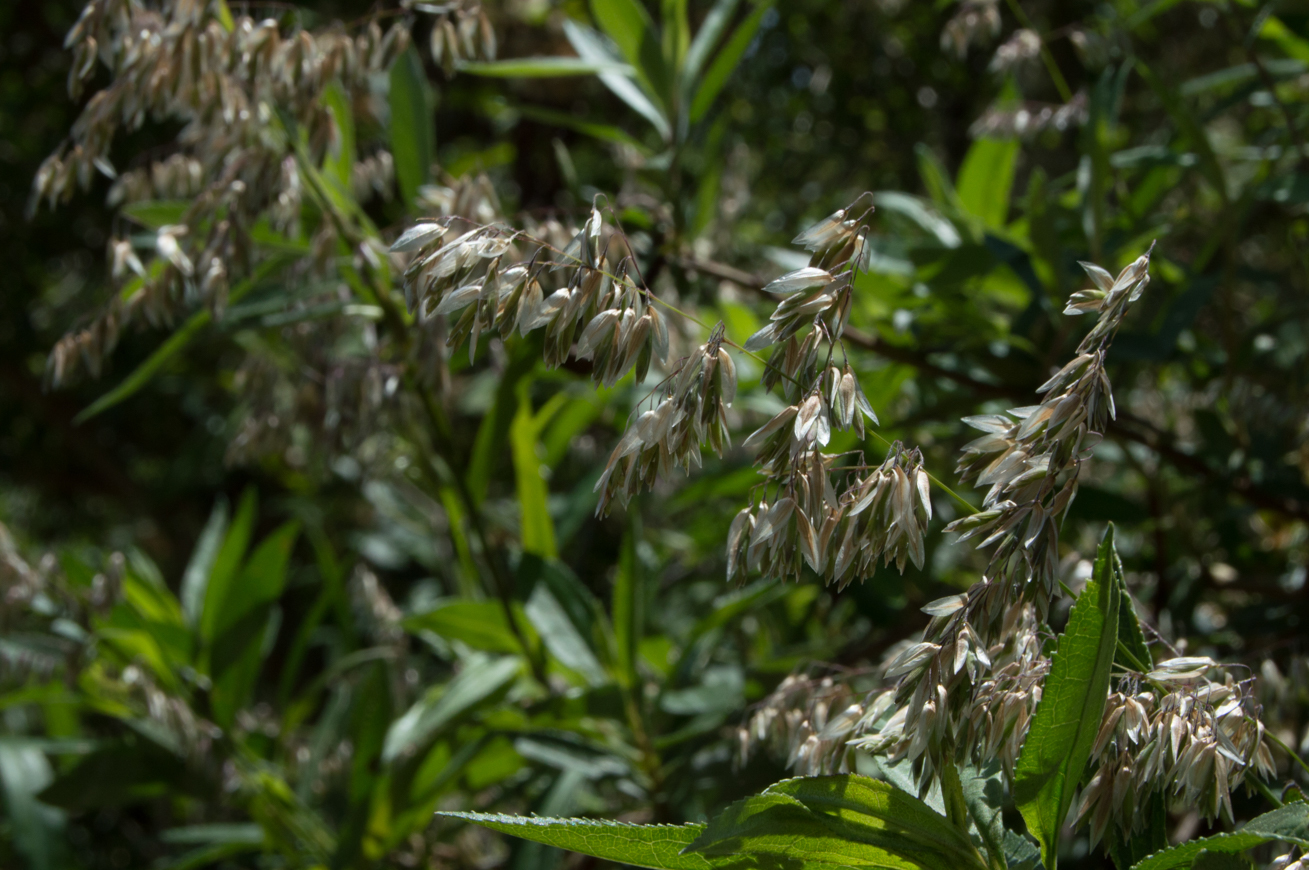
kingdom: Plantae
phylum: Tracheophyta
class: Liliopsida
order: Poales
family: Poaceae
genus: Melica
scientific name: Melica sarmentosa
